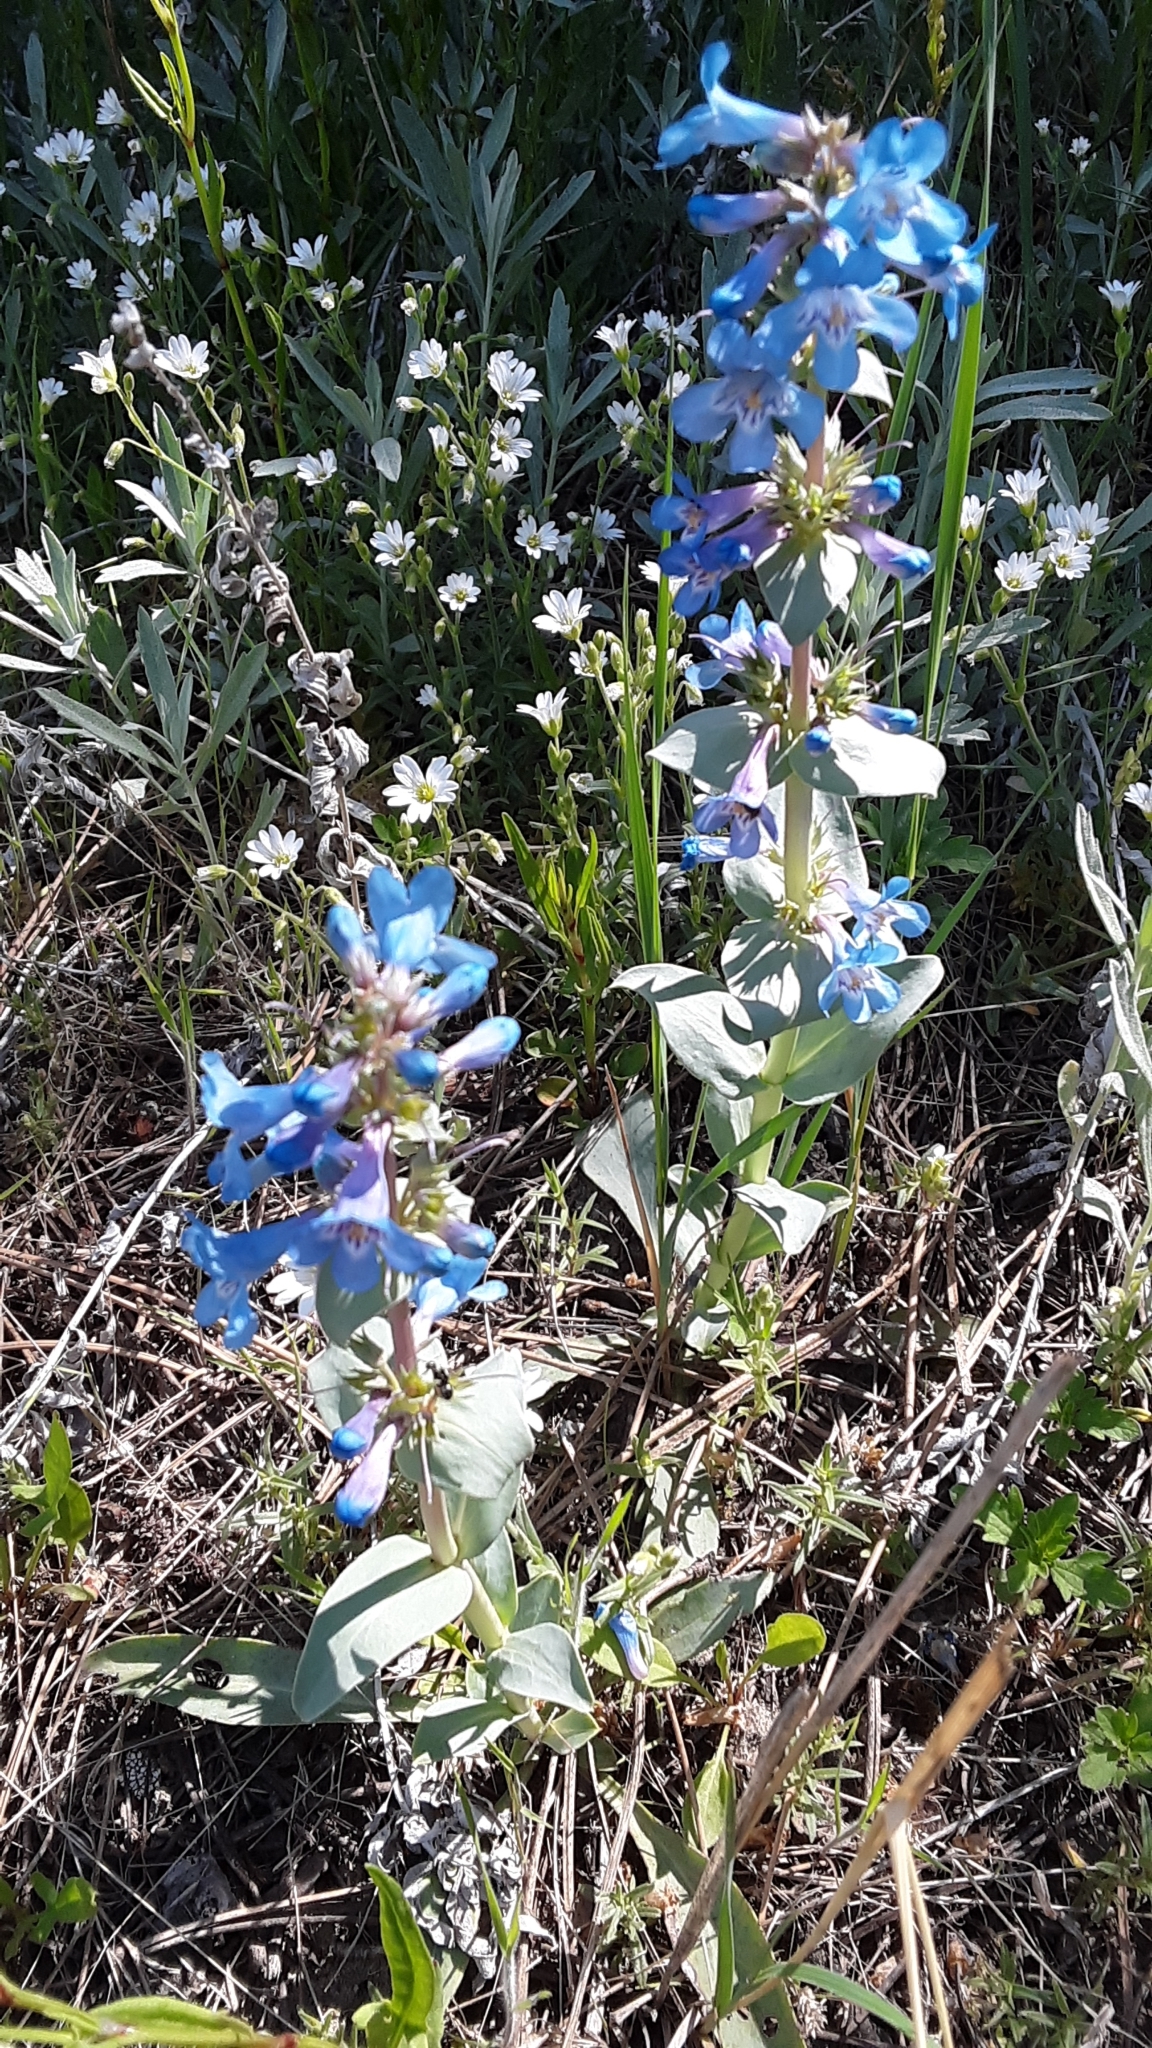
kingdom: Plantae
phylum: Tracheophyta
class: Magnoliopsida
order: Lamiales
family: Plantaginaceae
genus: Penstemon
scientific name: Penstemon nitidus
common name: Shining penstemon
